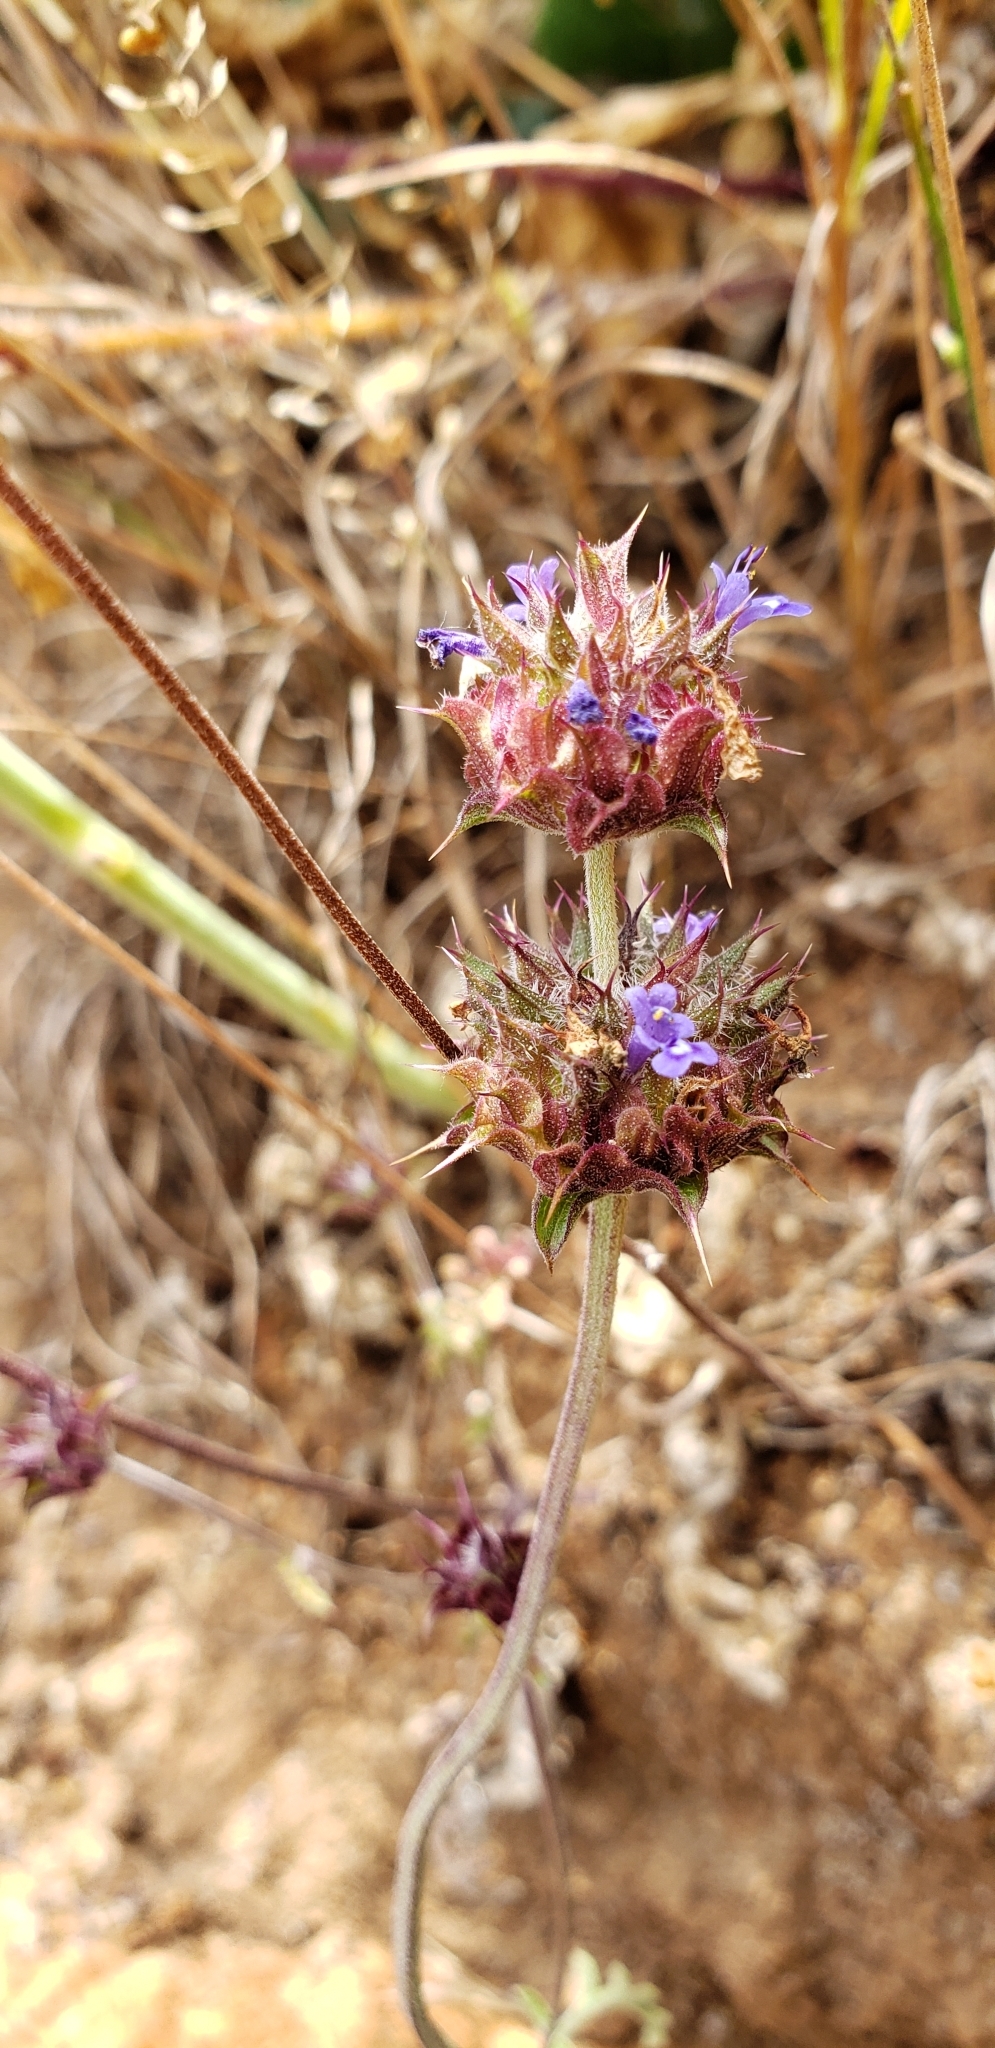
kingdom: Plantae
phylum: Tracheophyta
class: Magnoliopsida
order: Lamiales
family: Lamiaceae
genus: Salvia
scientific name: Salvia columbariae
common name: Chia
